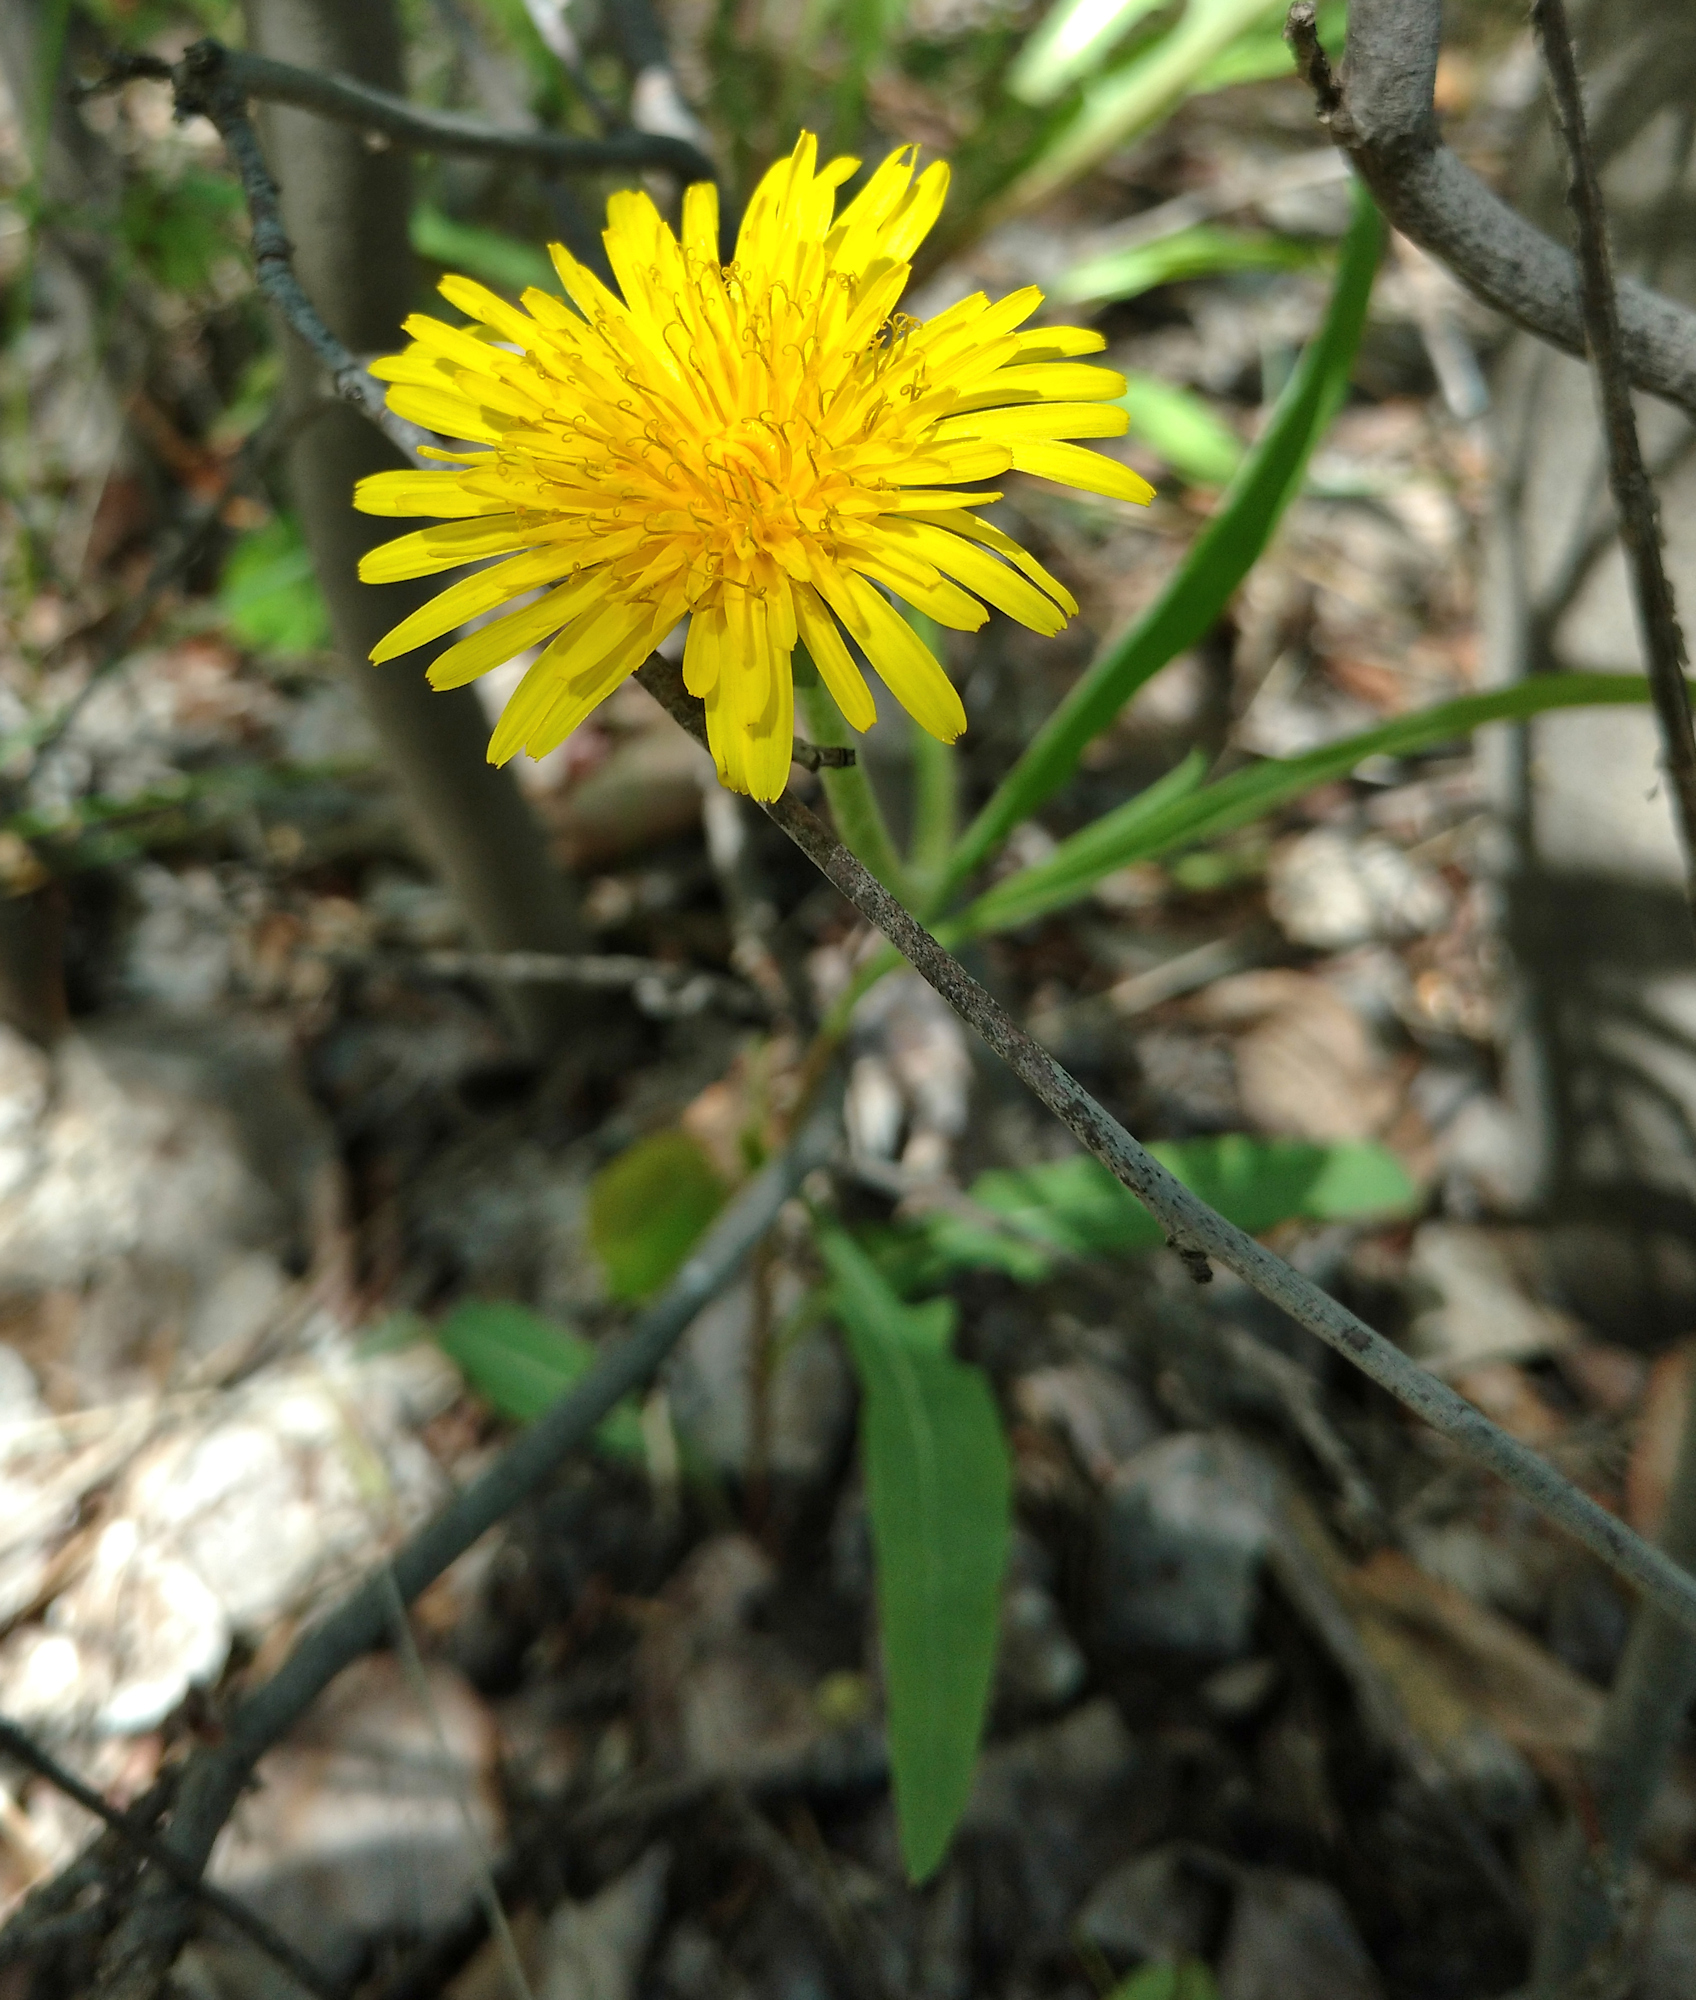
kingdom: Plantae
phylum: Tracheophyta
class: Magnoliopsida
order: Asterales
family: Asteraceae
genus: Taraxacum
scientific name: Taraxacum officinale
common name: Common dandelion
